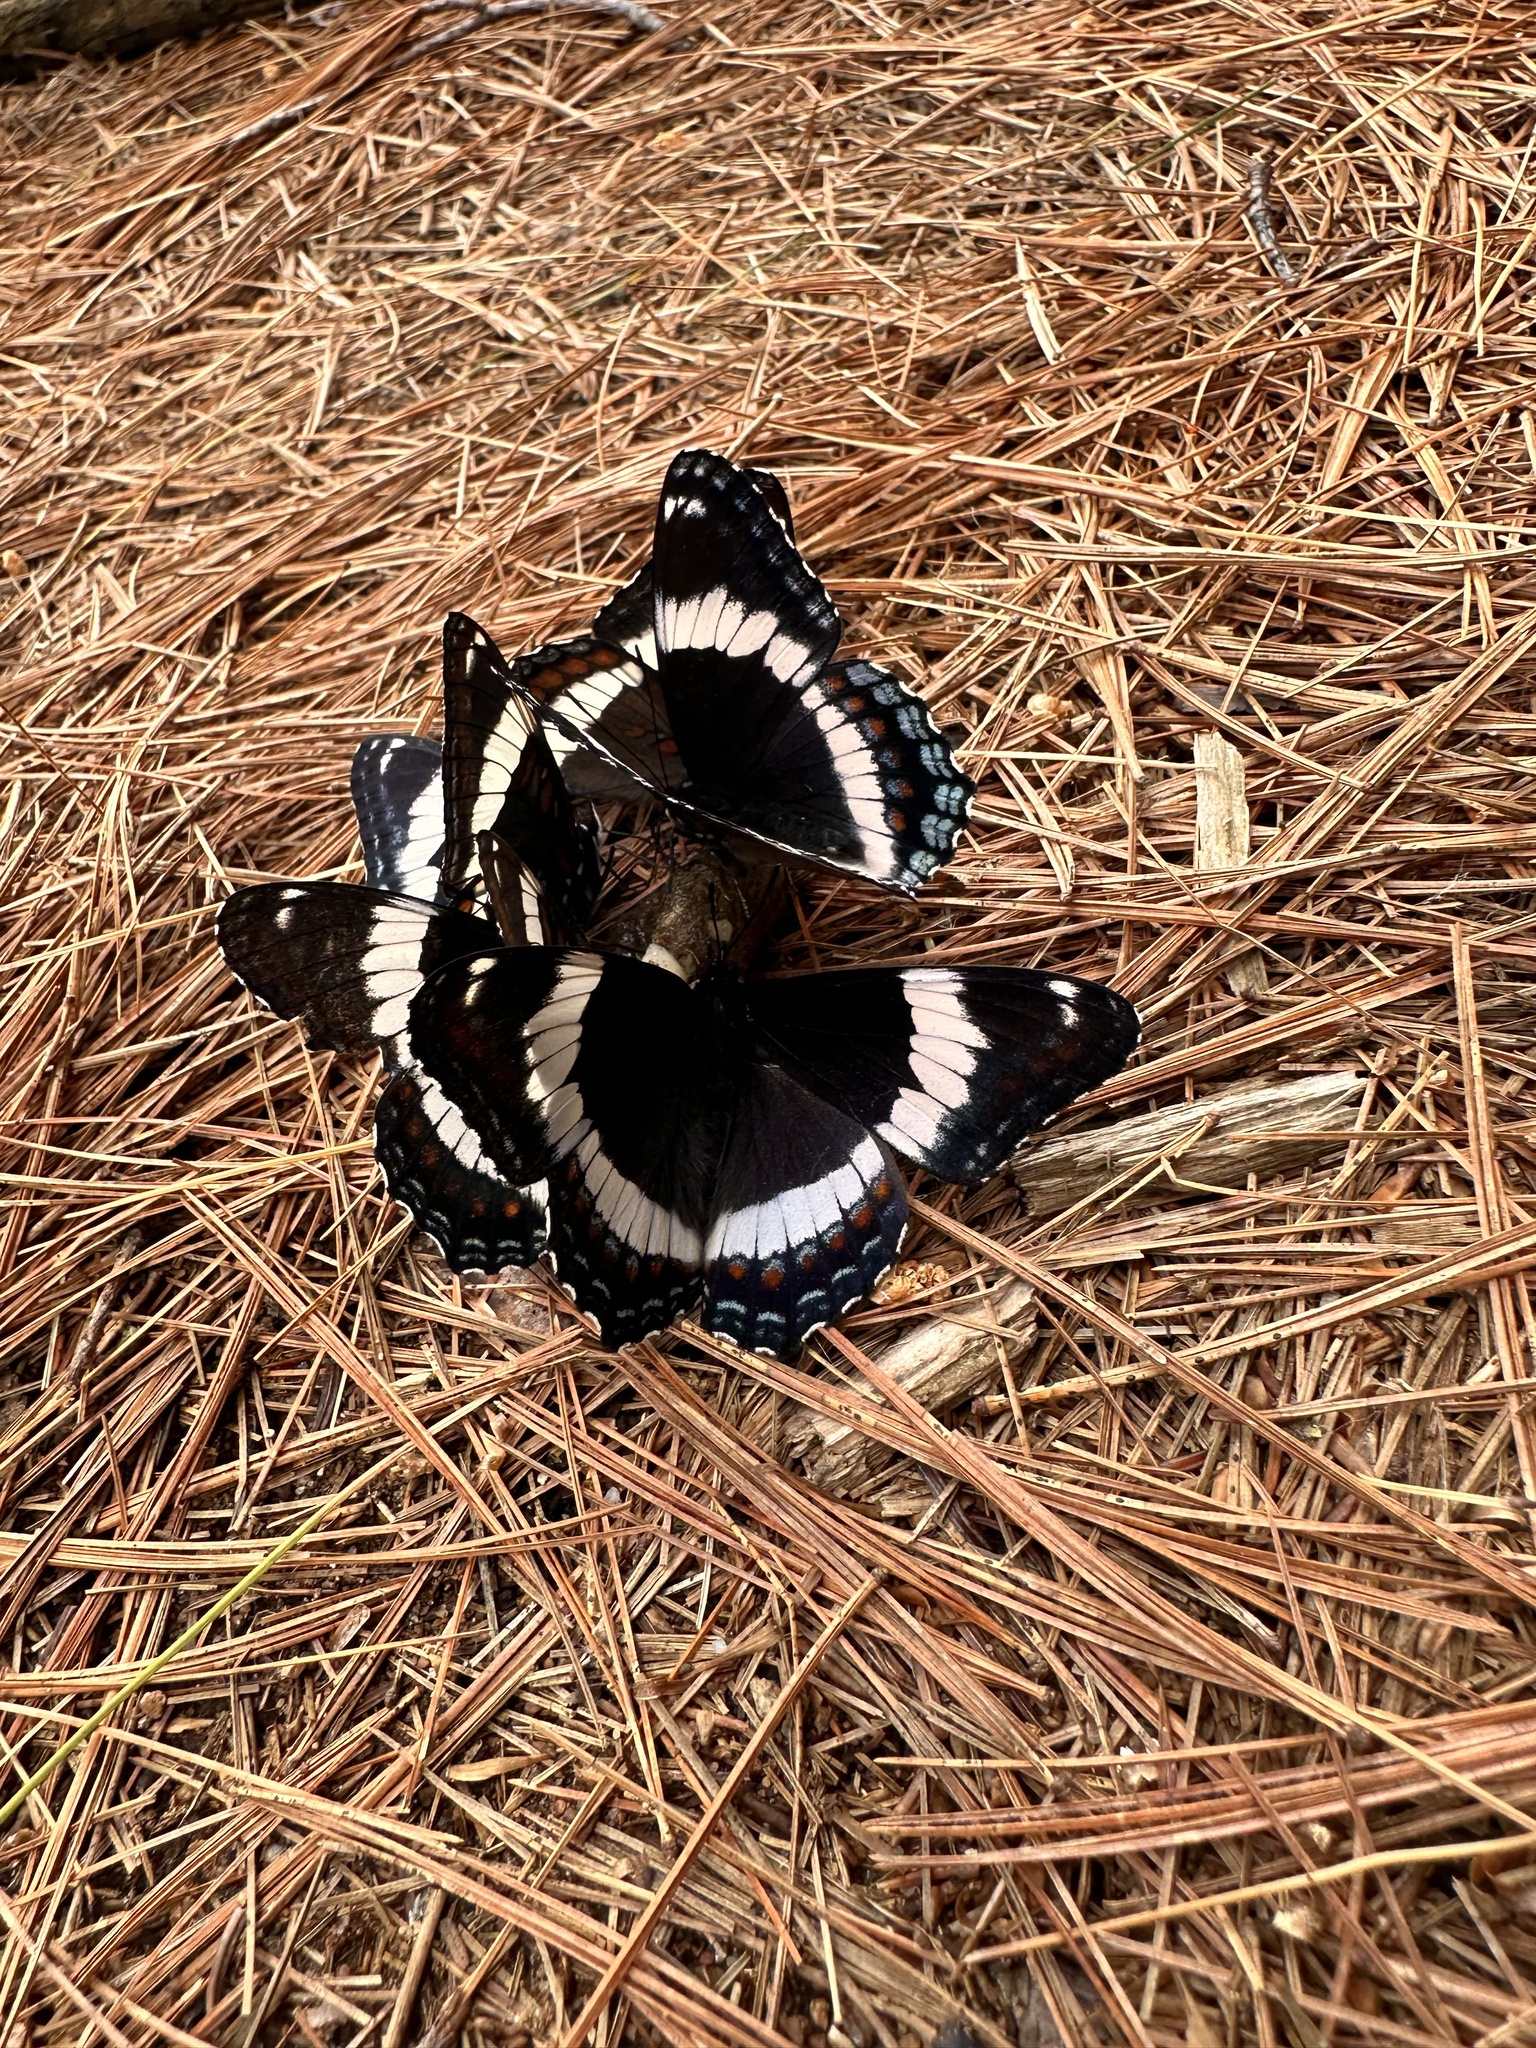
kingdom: Animalia
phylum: Arthropoda
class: Insecta
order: Lepidoptera
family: Nymphalidae
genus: Limenitis
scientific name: Limenitis arthemis
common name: Red-spotted admiral
